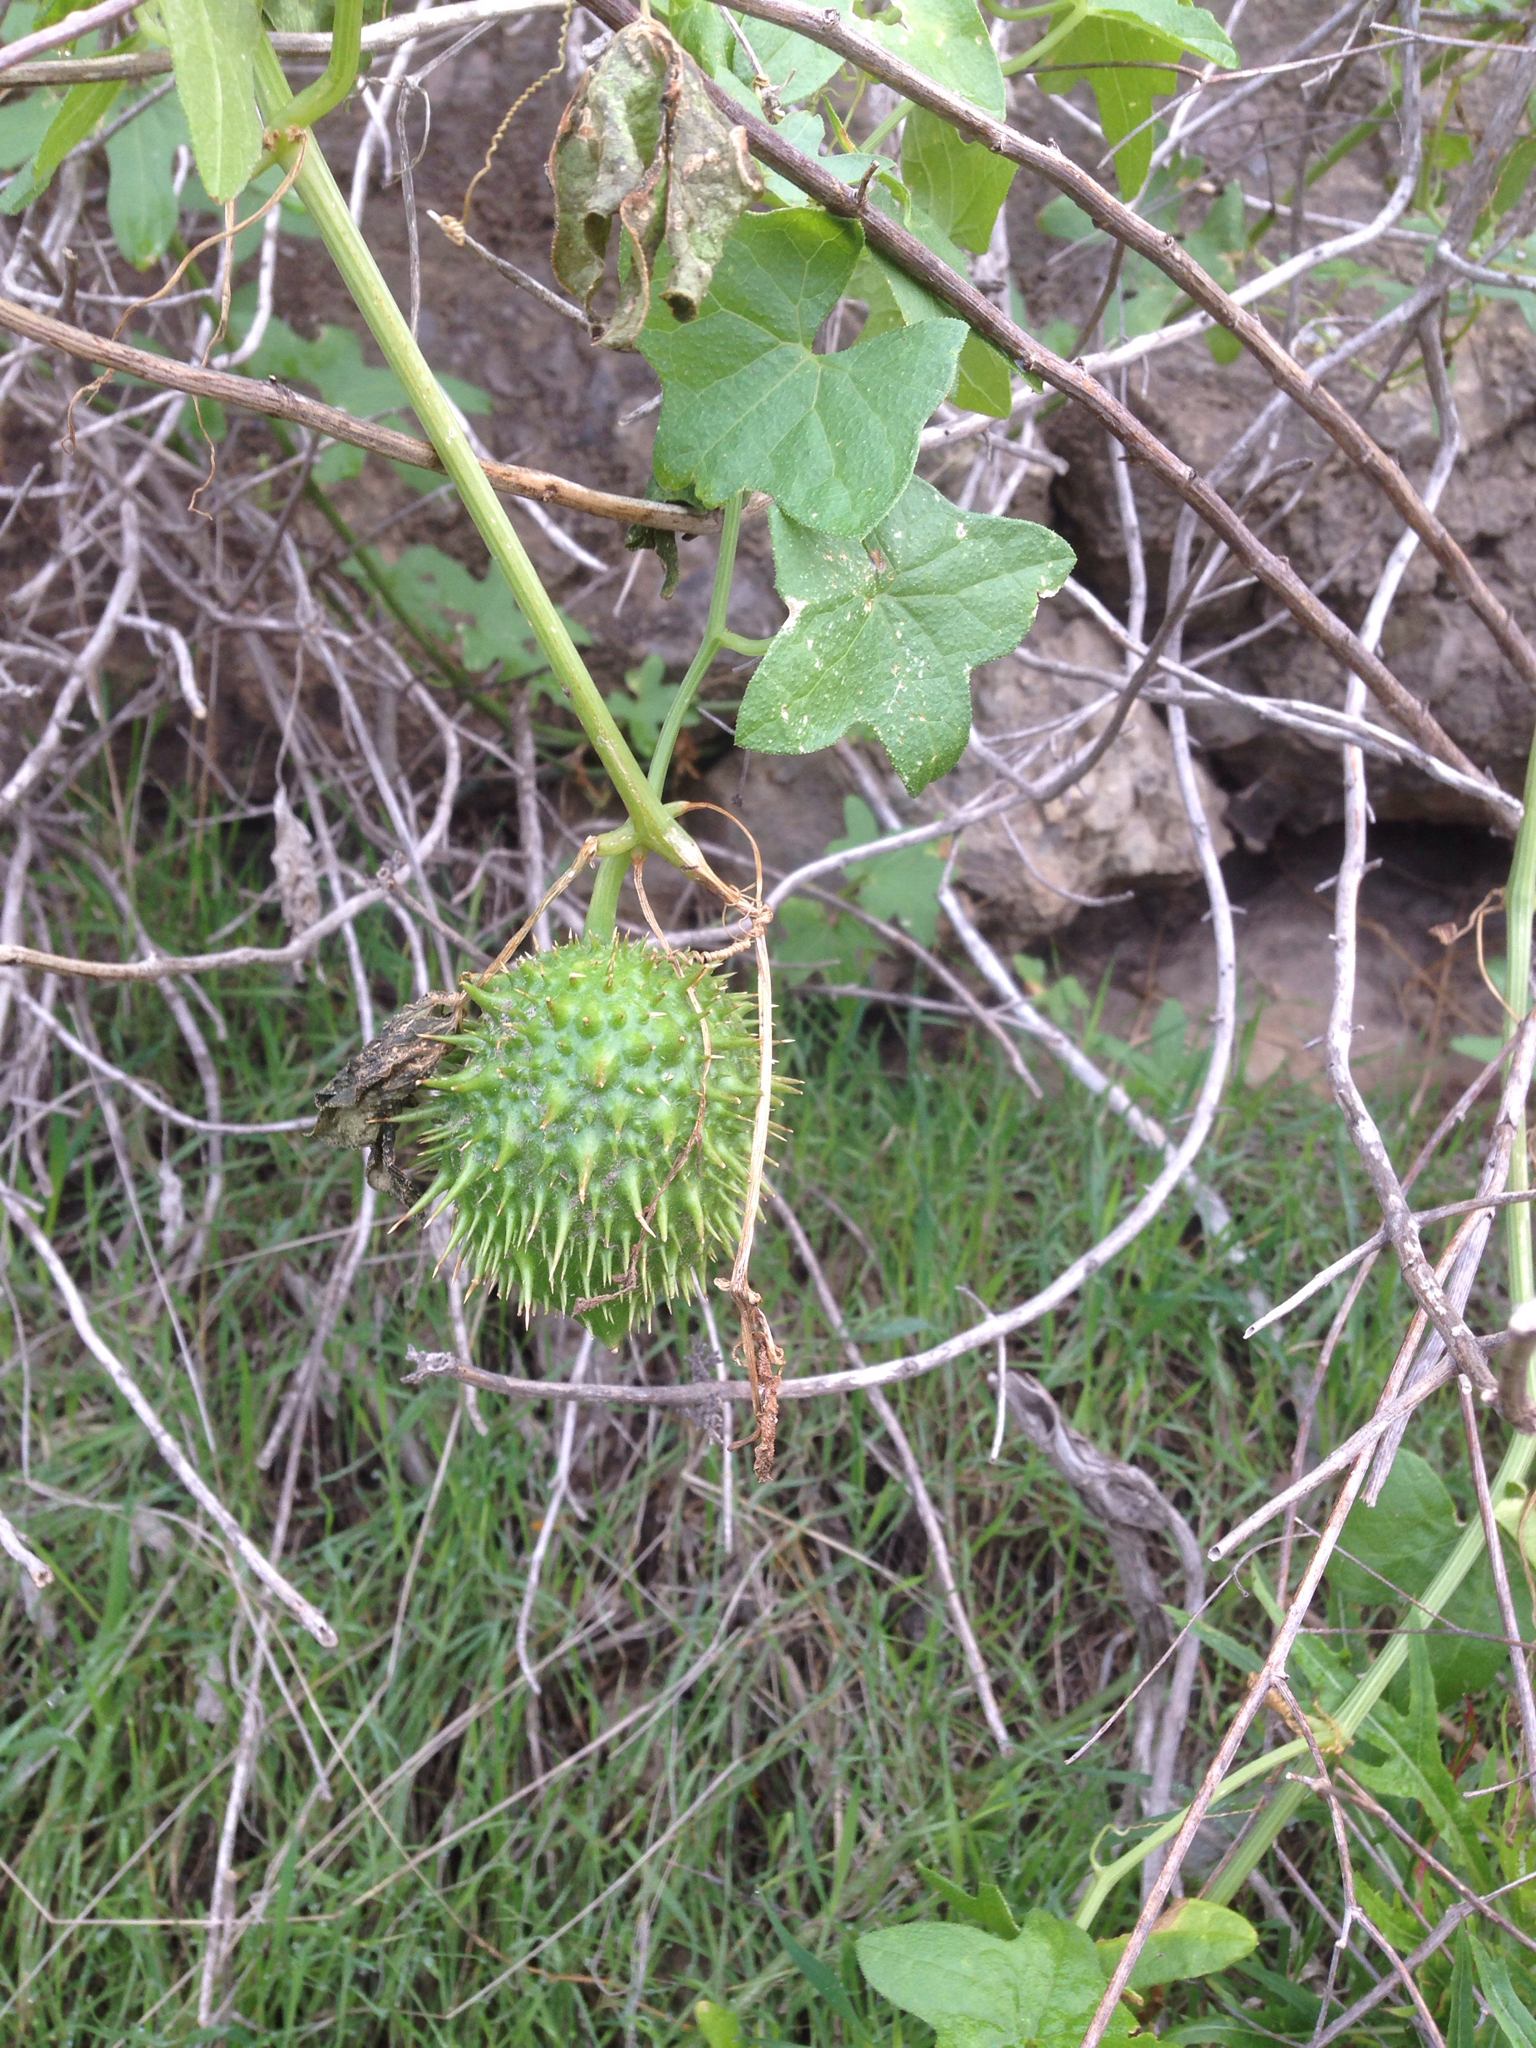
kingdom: Plantae
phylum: Tracheophyta
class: Magnoliopsida
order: Cucurbitales
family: Cucurbitaceae
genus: Marah
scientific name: Marah macrocarpa
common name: Cucamonga manroot
